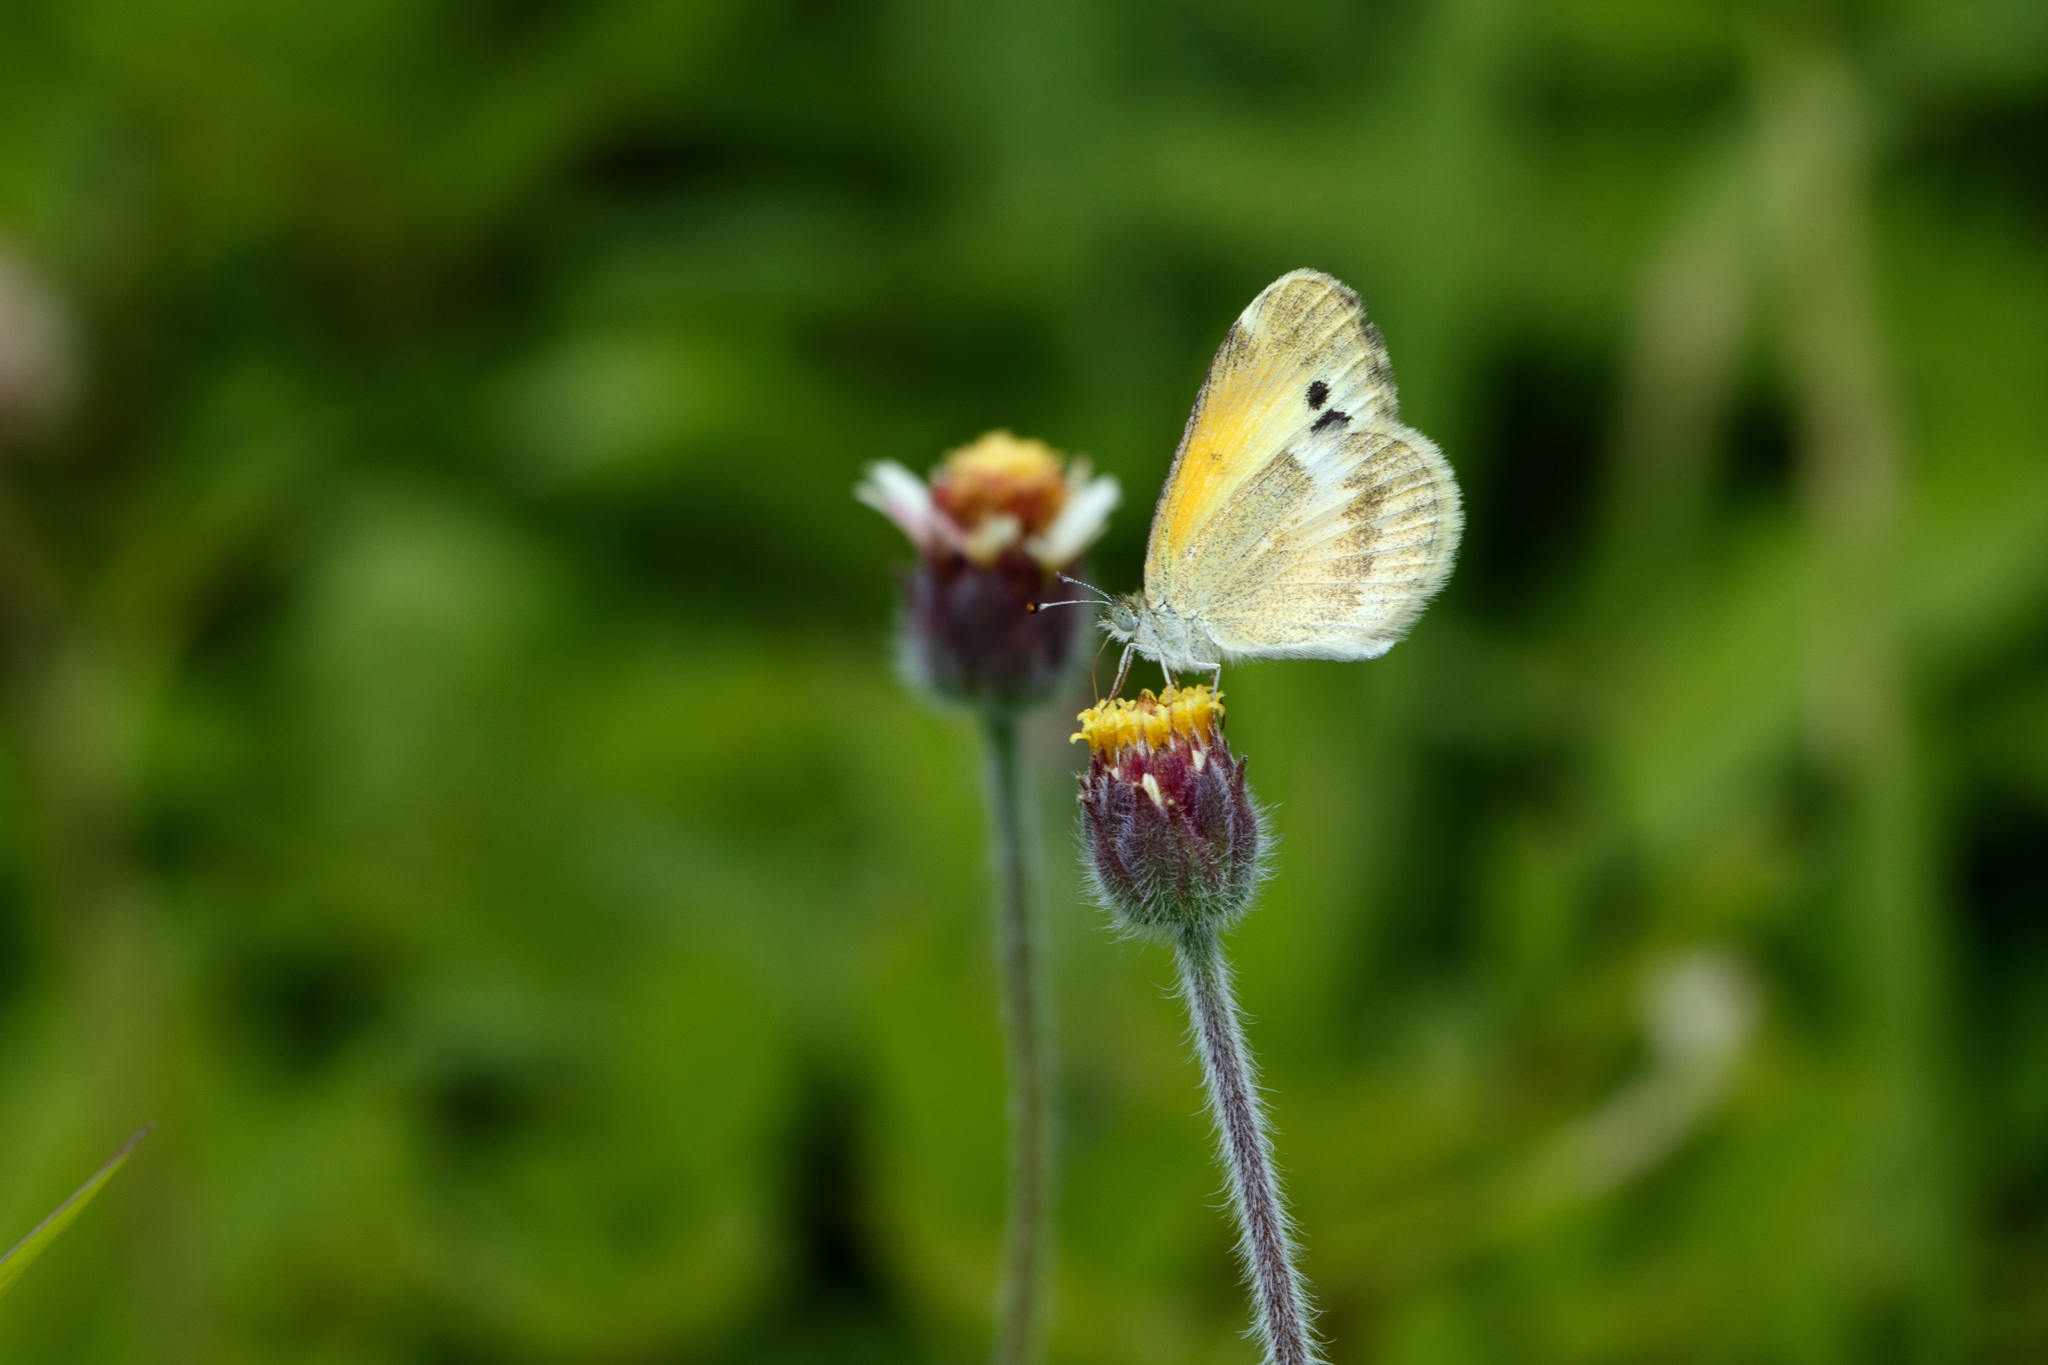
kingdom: Animalia
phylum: Arthropoda
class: Insecta
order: Lepidoptera
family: Pieridae
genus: Nathalis
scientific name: Nathalis iole
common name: Dainty sulphur
